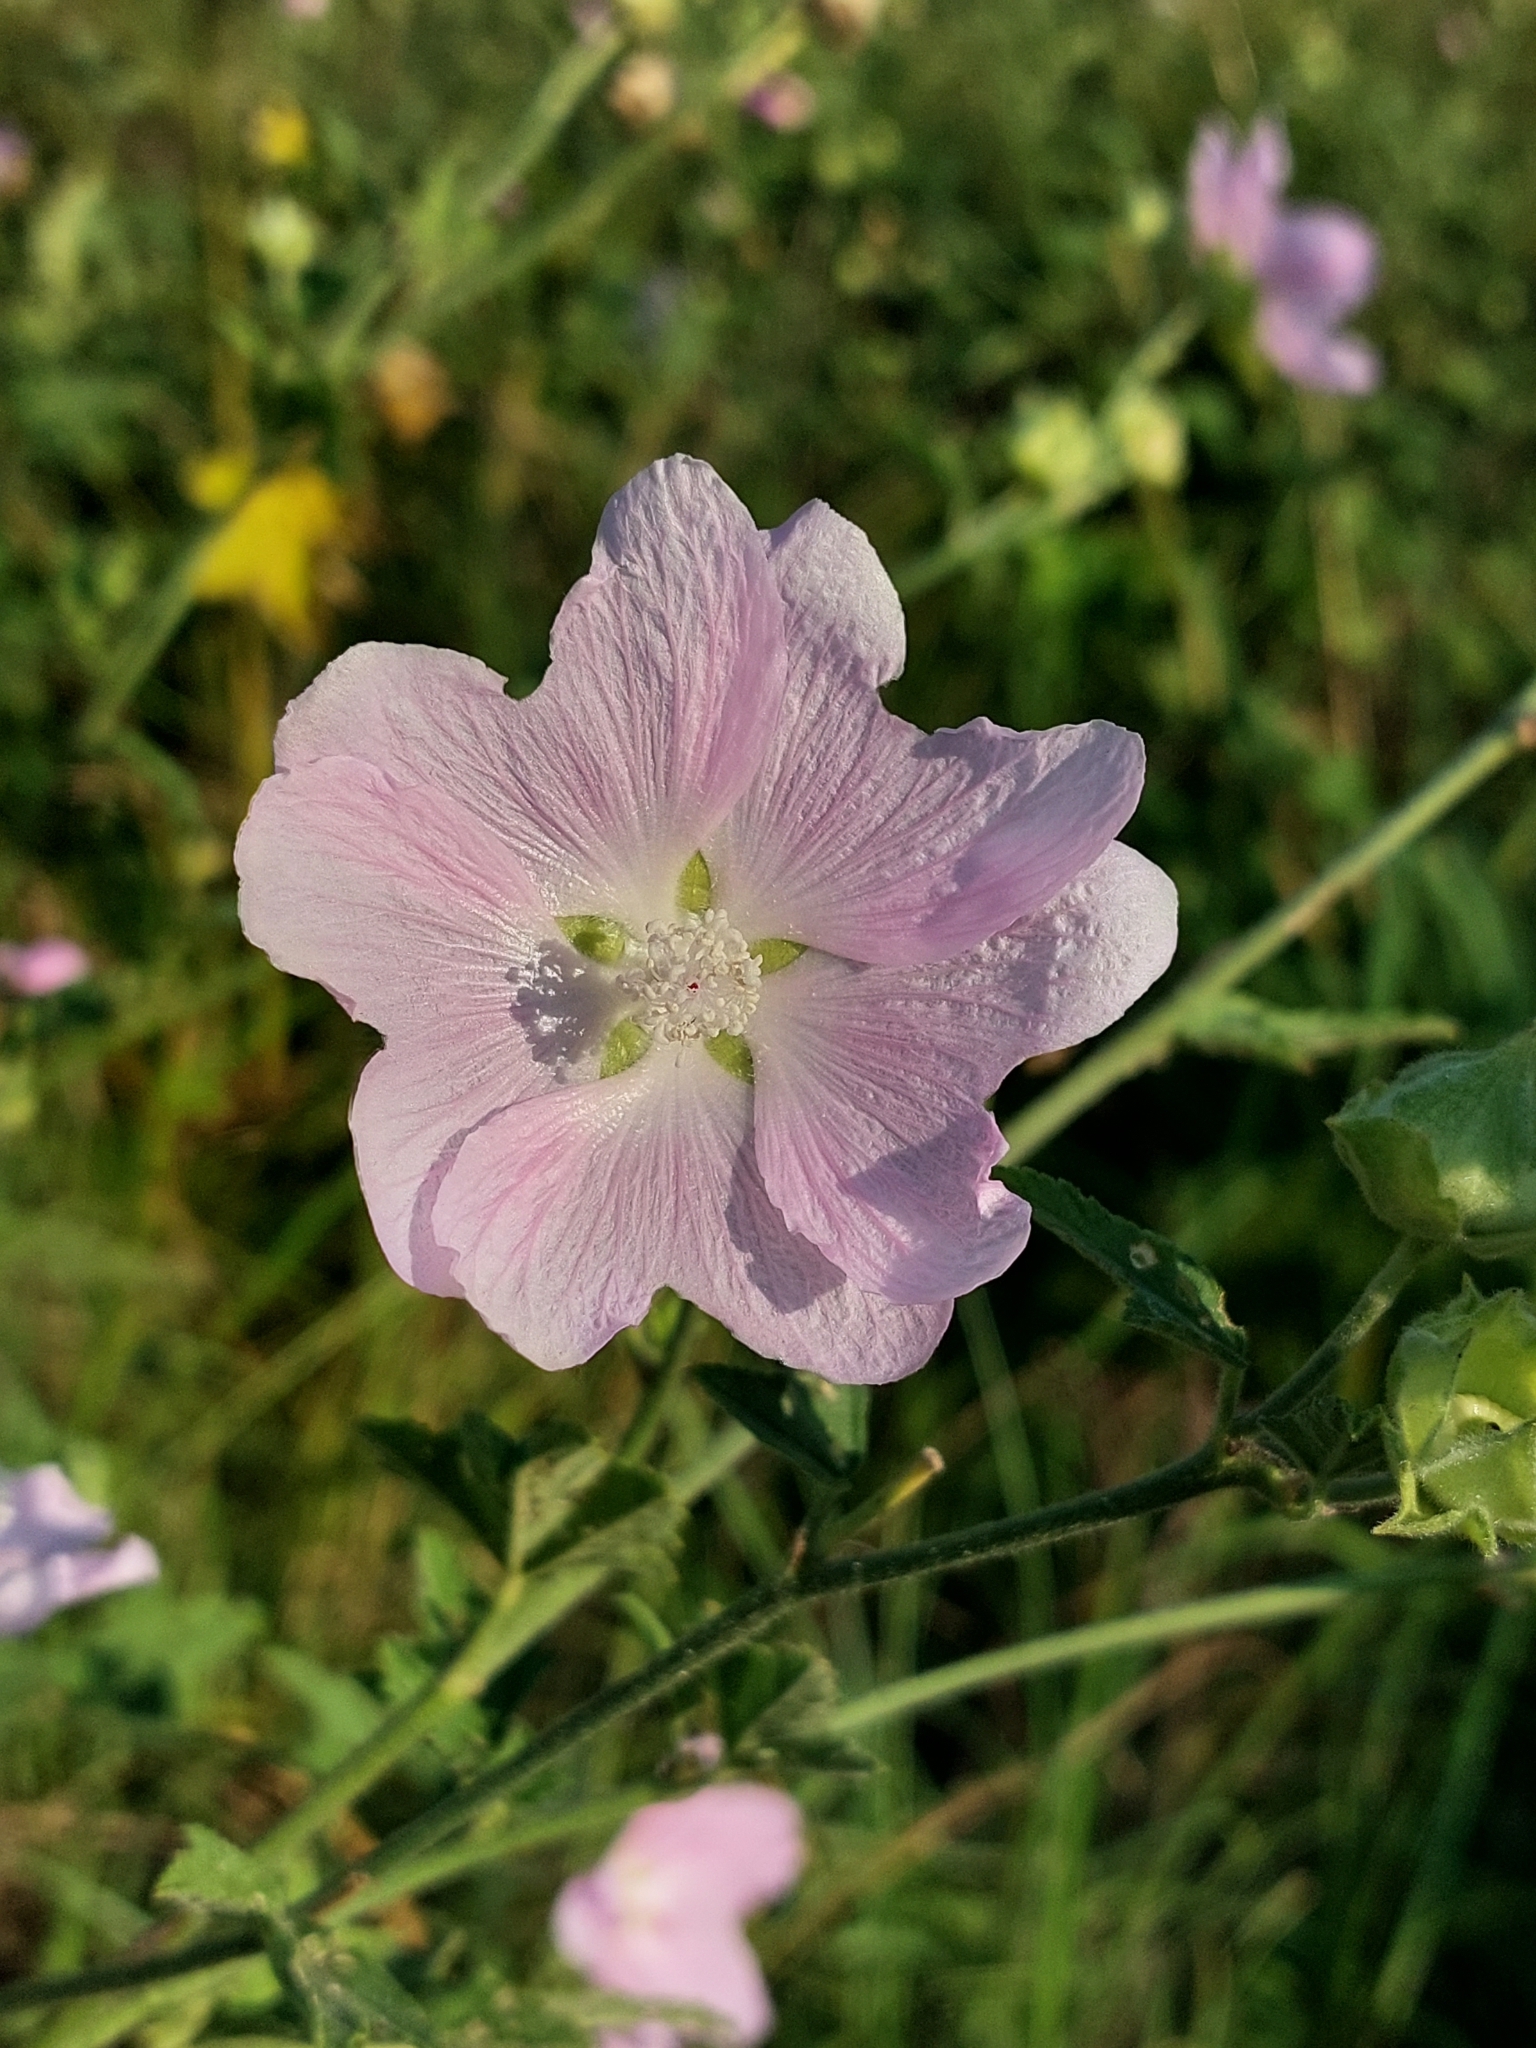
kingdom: Plantae
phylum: Tracheophyta
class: Magnoliopsida
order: Malvales
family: Malvaceae
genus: Malva
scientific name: Malva thuringiaca
